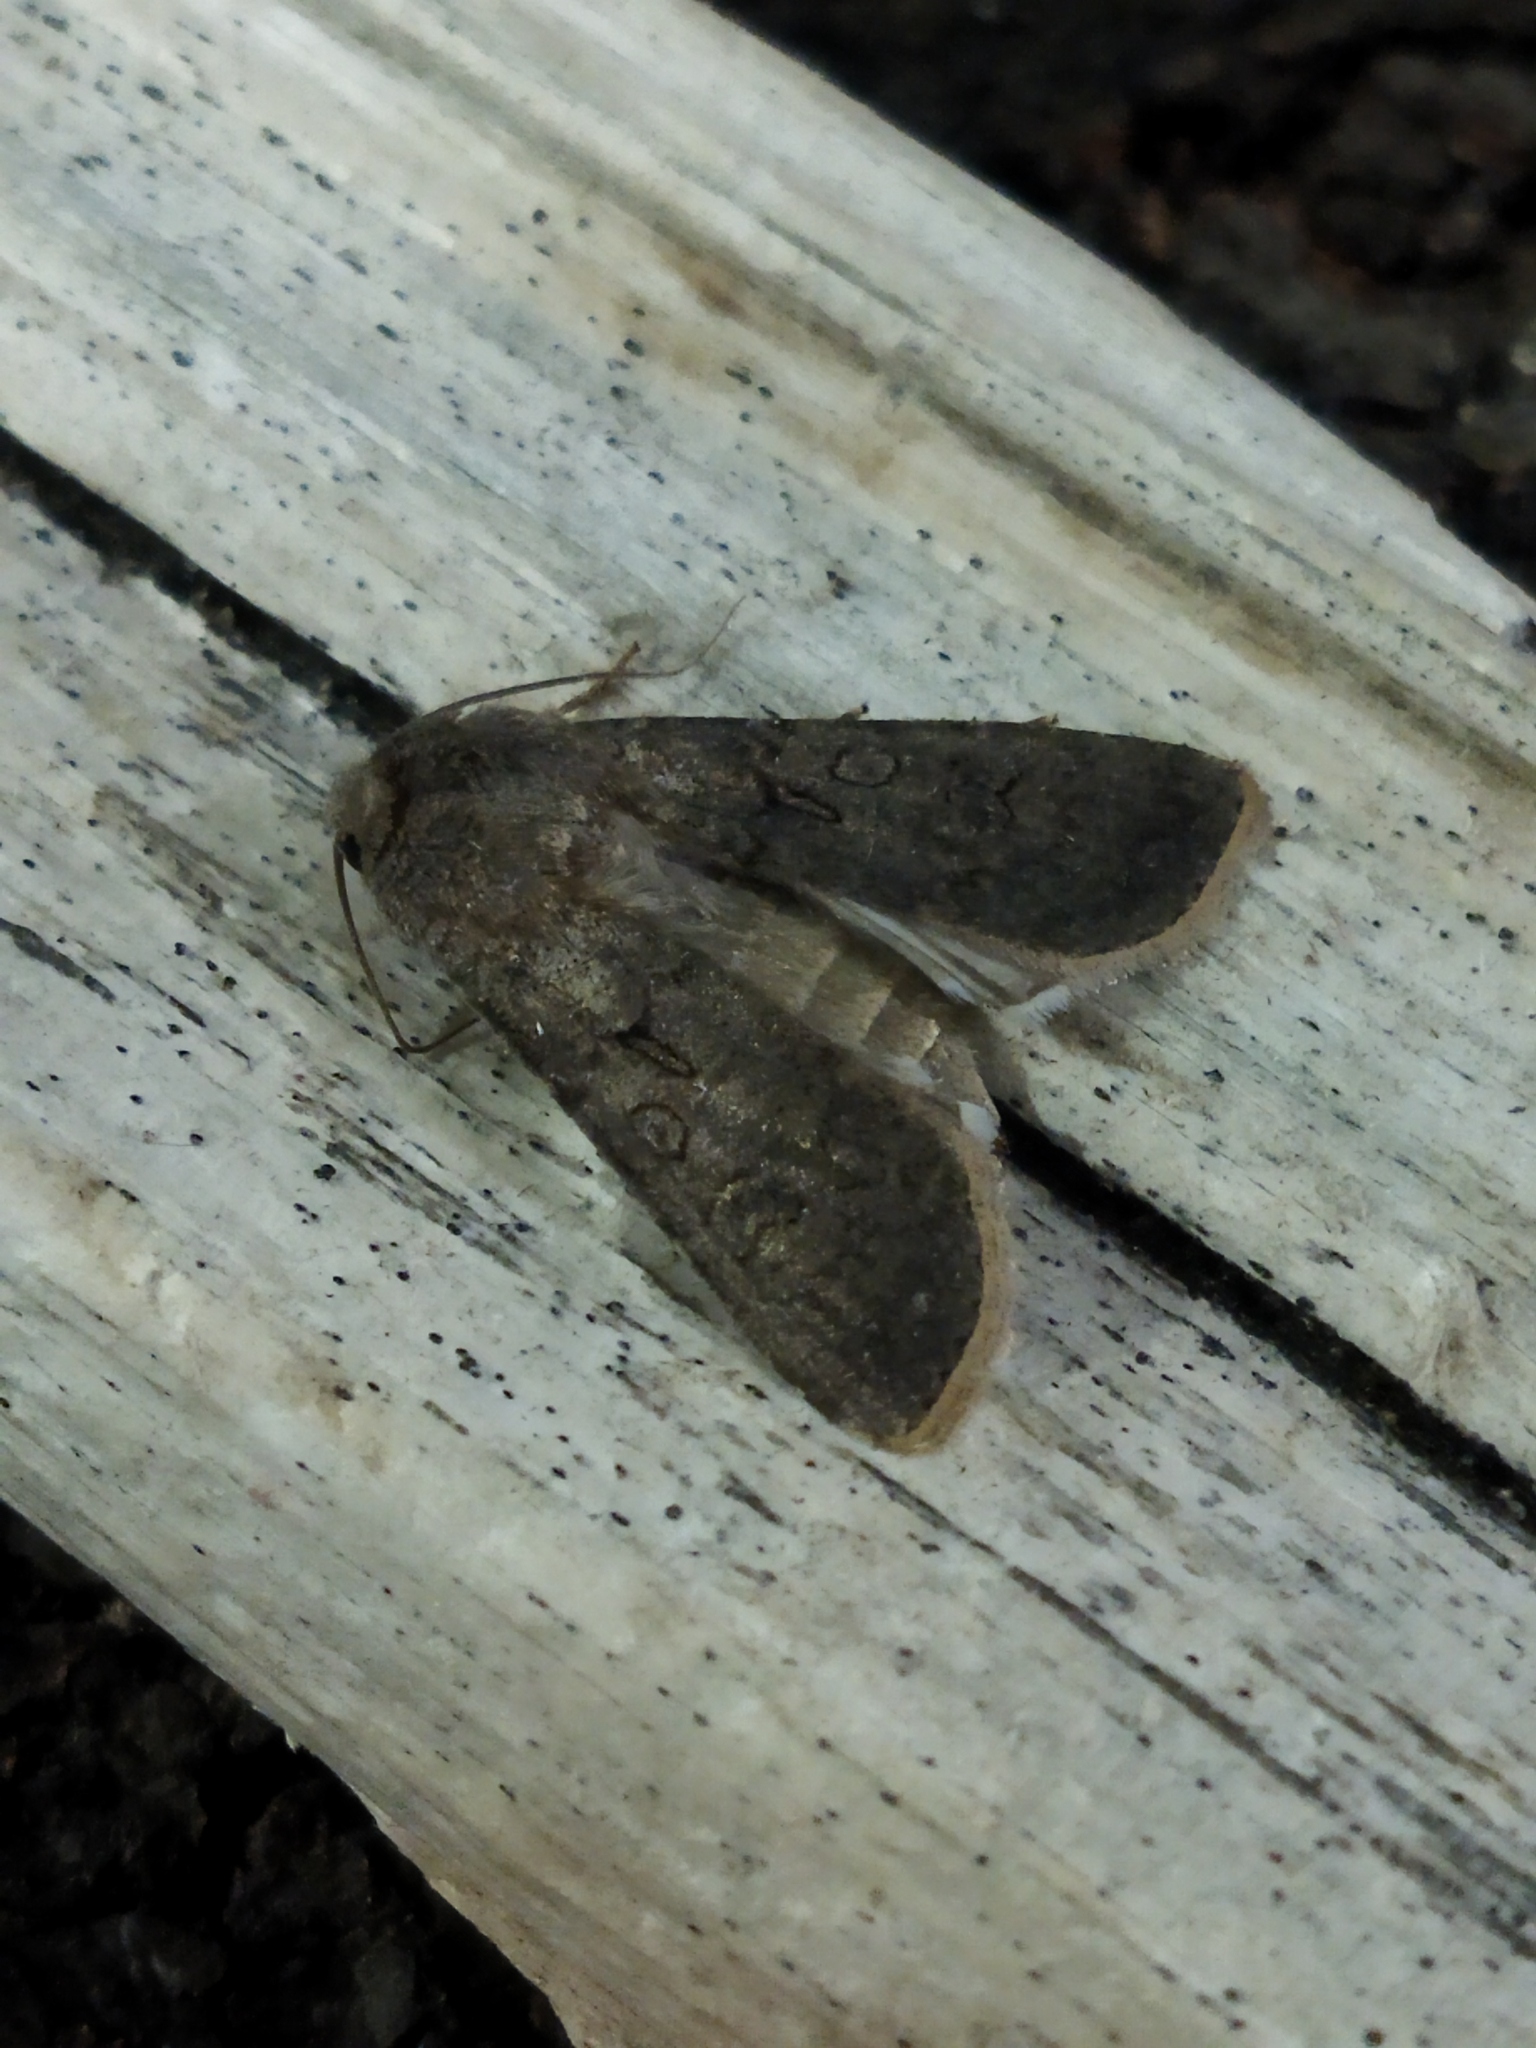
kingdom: Animalia
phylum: Arthropoda
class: Insecta
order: Lepidoptera
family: Noctuidae
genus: Agrotis
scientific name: Agrotis segetum
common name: Turnip moth
